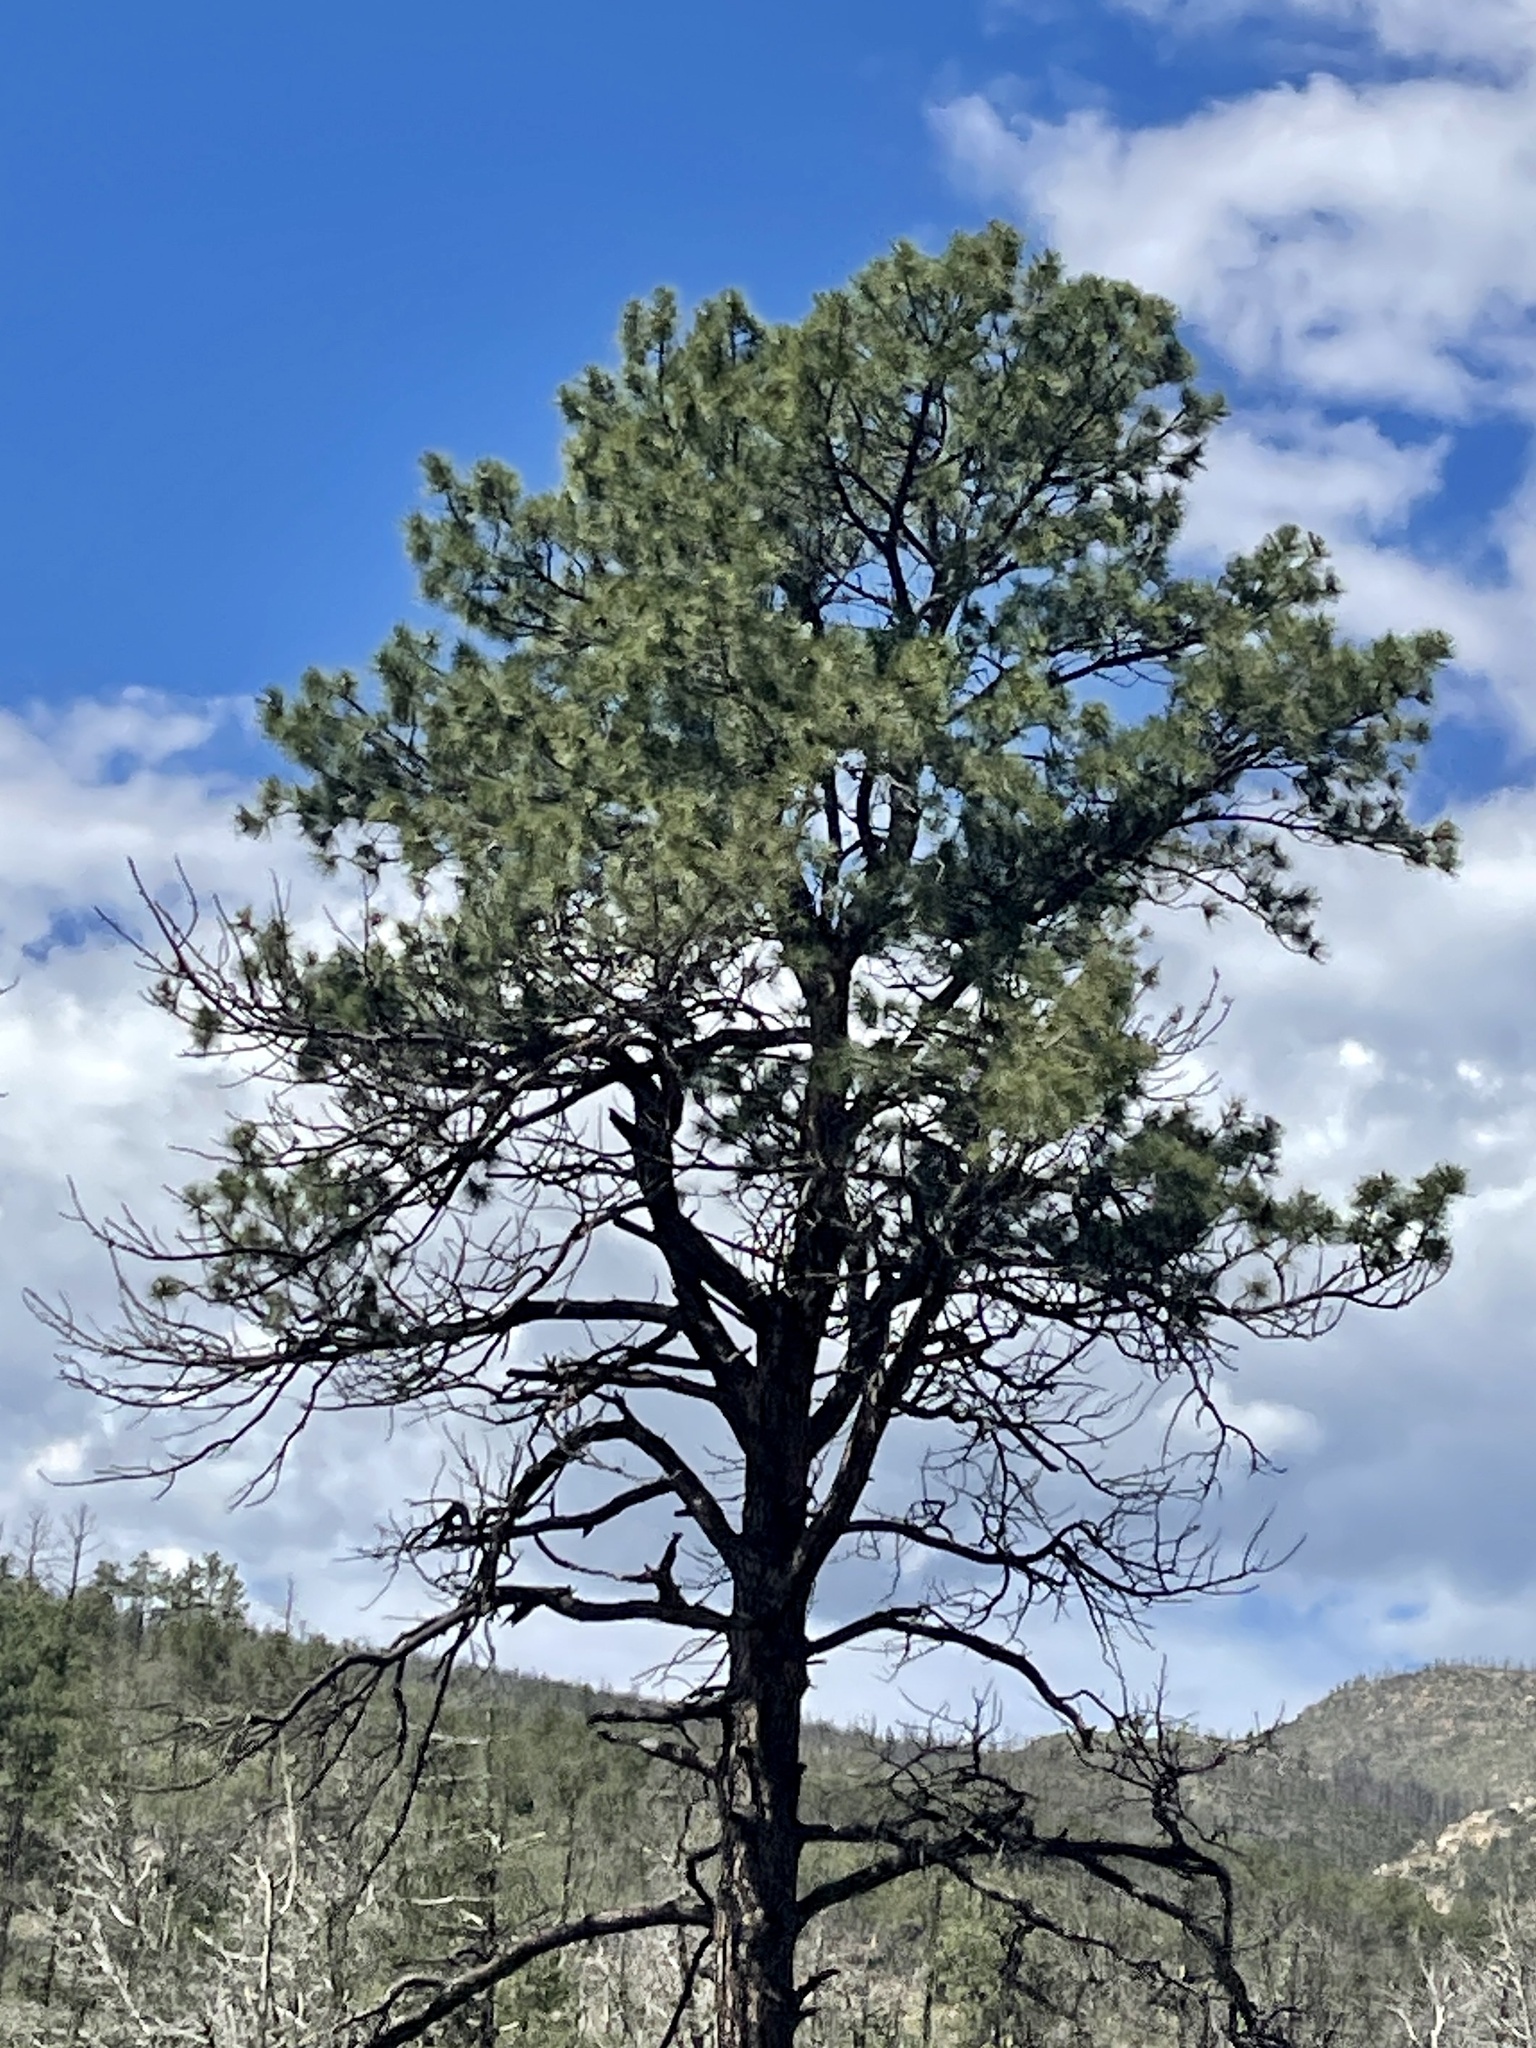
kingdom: Plantae
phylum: Tracheophyta
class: Pinopsida
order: Pinales
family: Pinaceae
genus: Pinus
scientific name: Pinus ponderosa
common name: Western yellow-pine
